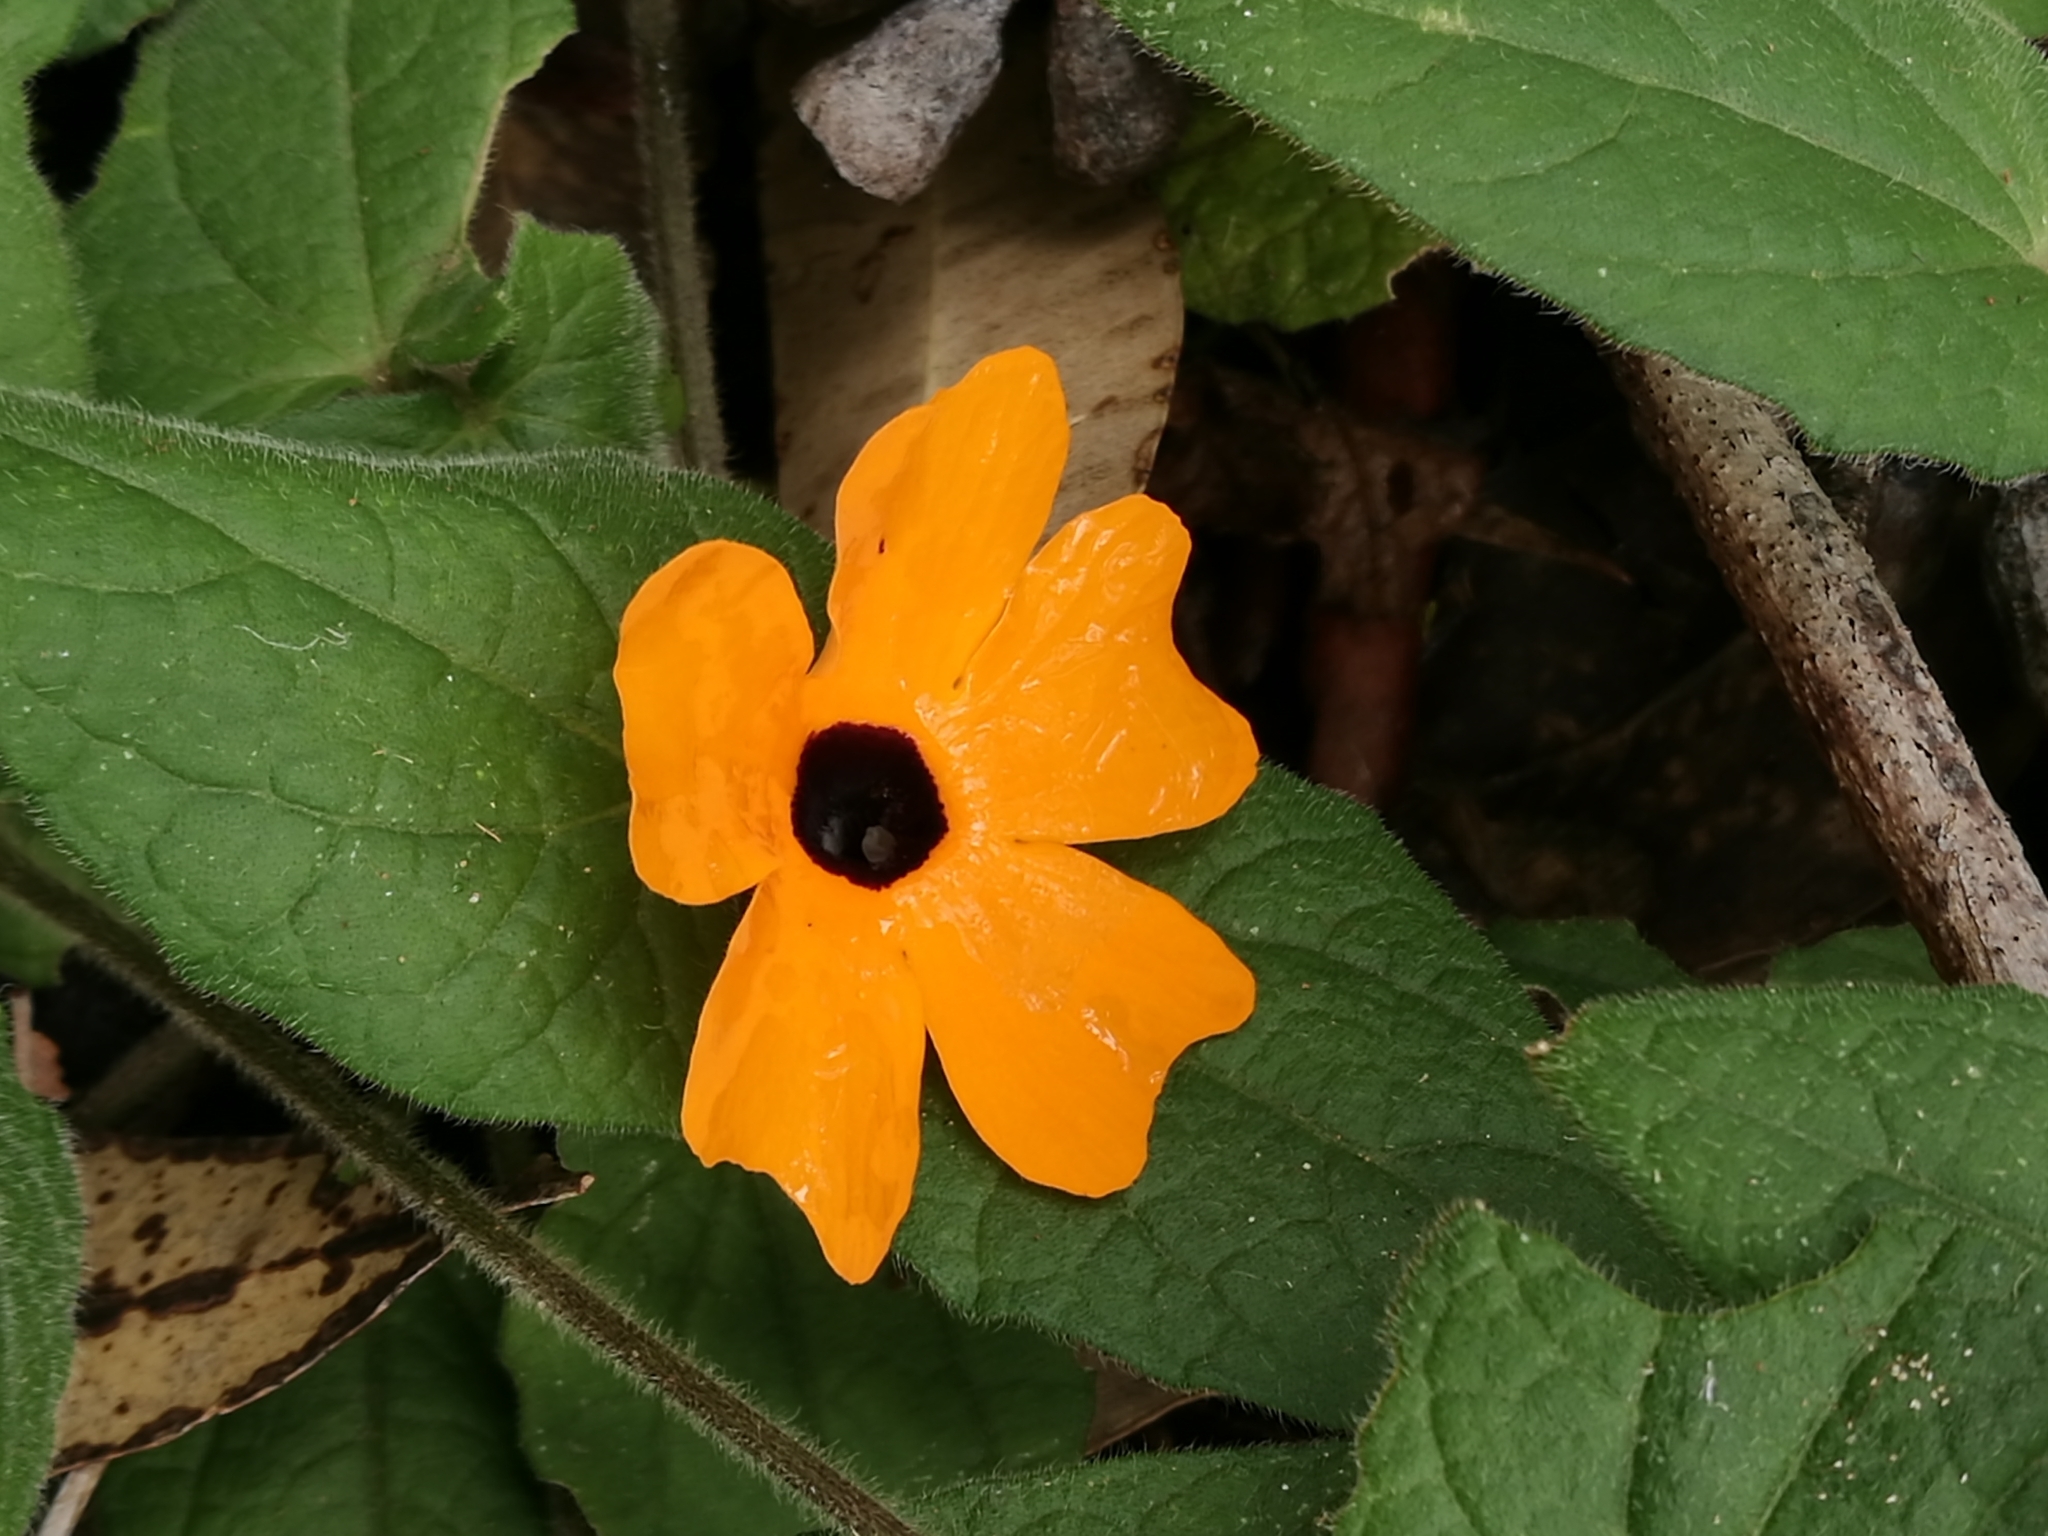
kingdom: Plantae
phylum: Tracheophyta
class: Magnoliopsida
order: Lamiales
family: Acanthaceae
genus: Thunbergia
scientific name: Thunbergia alata
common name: Blackeyed susan vine
